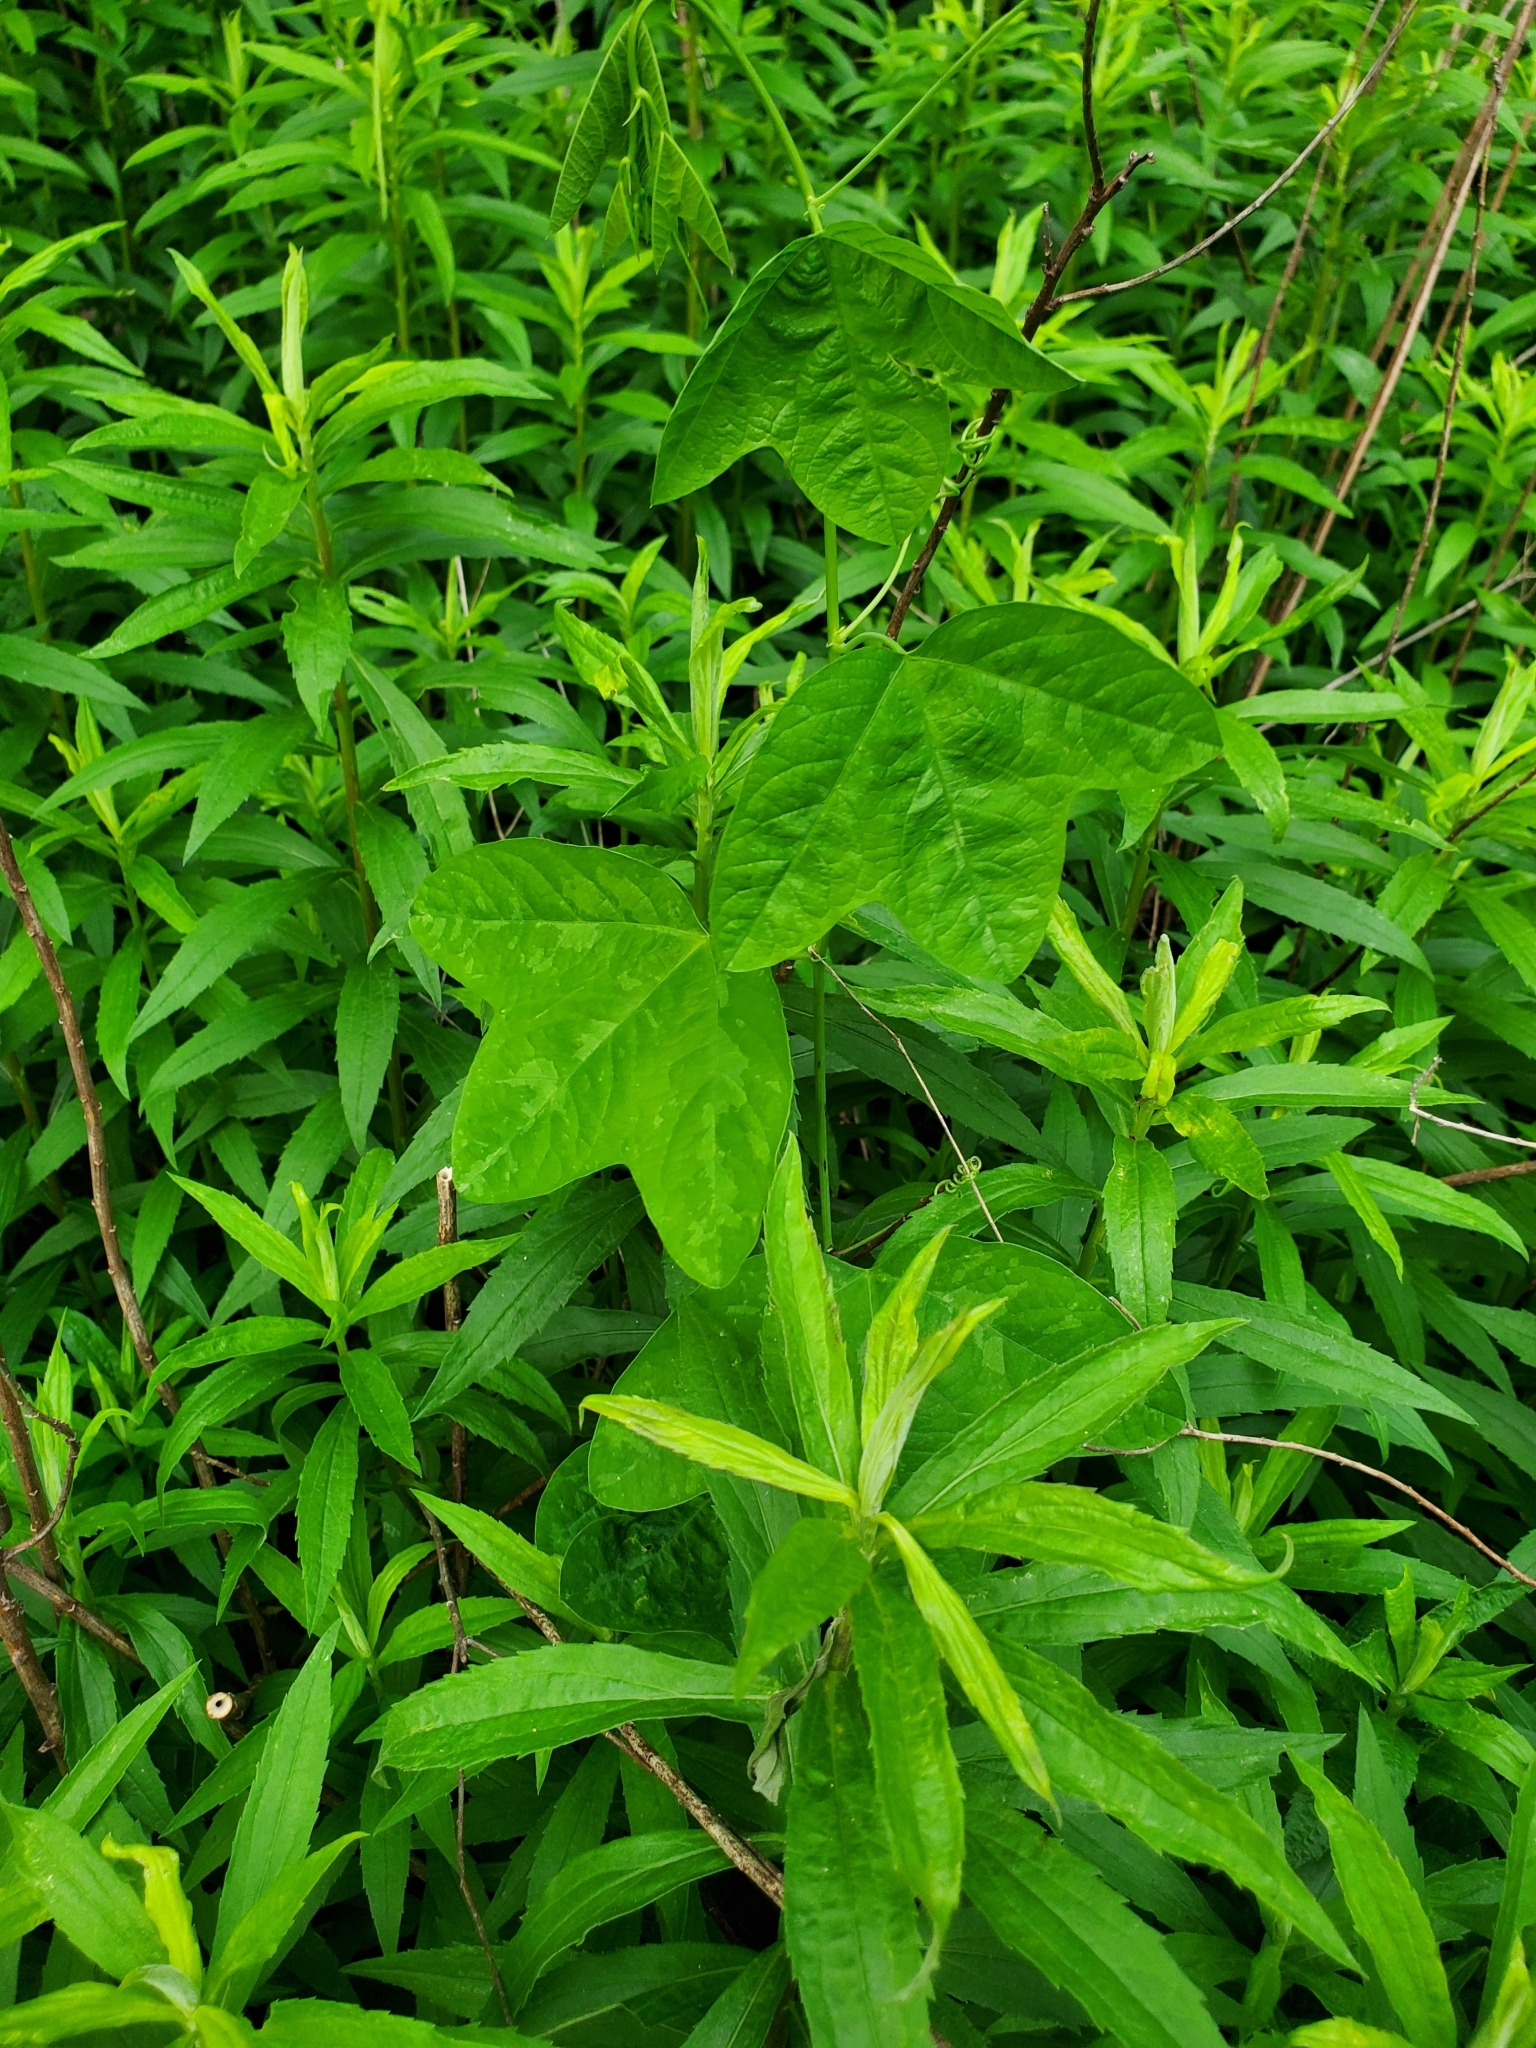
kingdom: Plantae
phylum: Tracheophyta
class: Magnoliopsida
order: Malpighiales
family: Passifloraceae
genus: Passiflora
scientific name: Passiflora lutea
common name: Yellow passionflower
